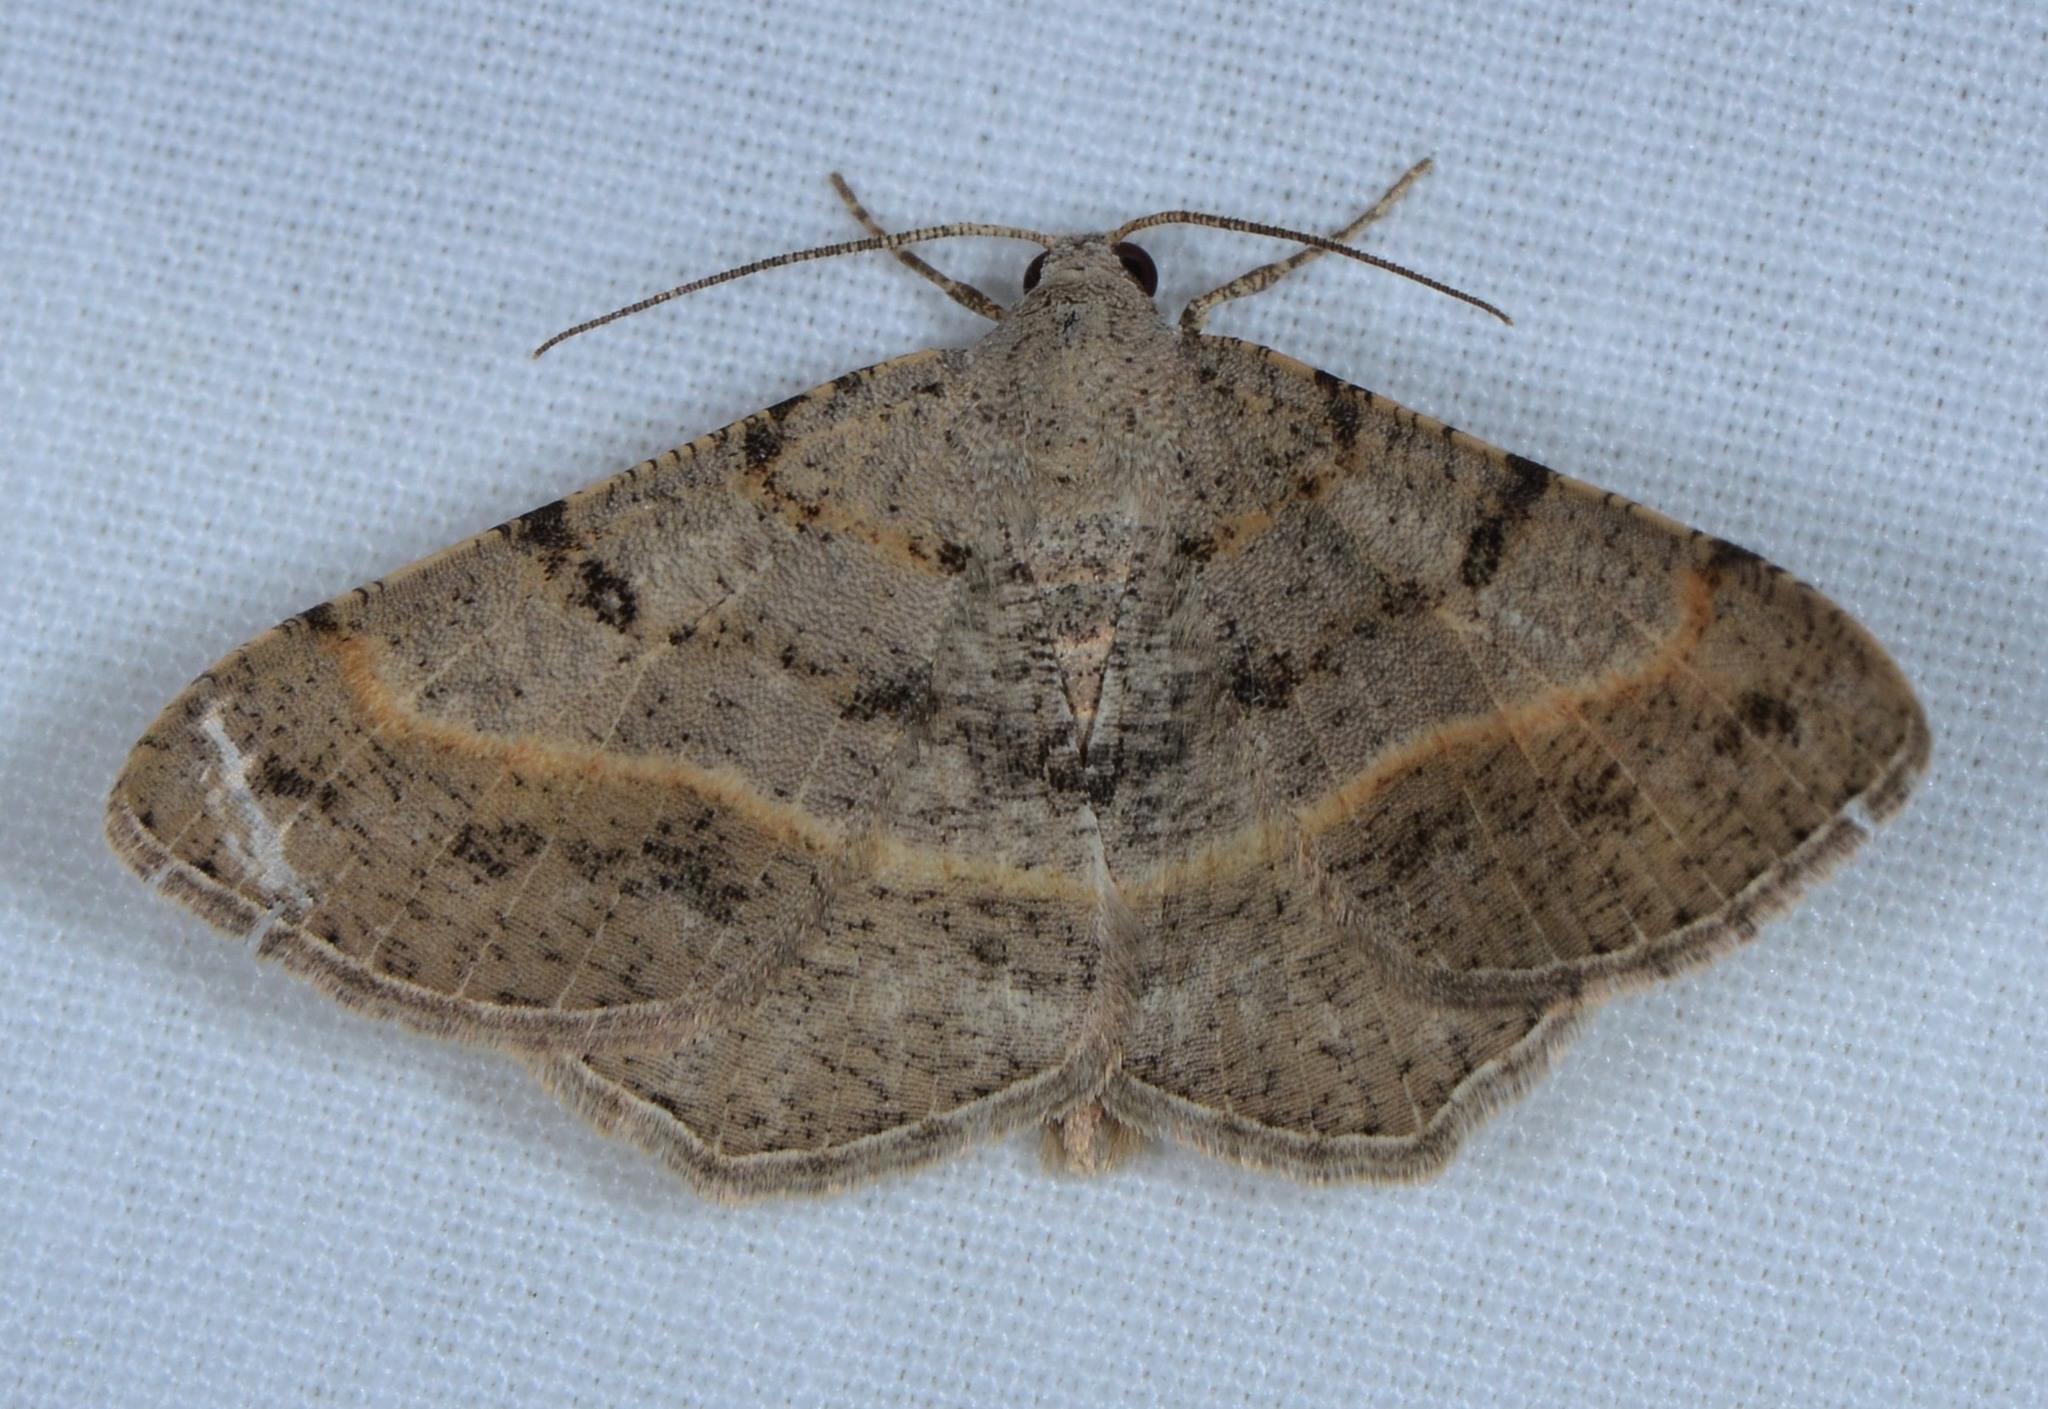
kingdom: Animalia
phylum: Arthropoda
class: Insecta
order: Lepidoptera
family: Geometridae
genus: Digrammia
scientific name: Digrammia irrorata
